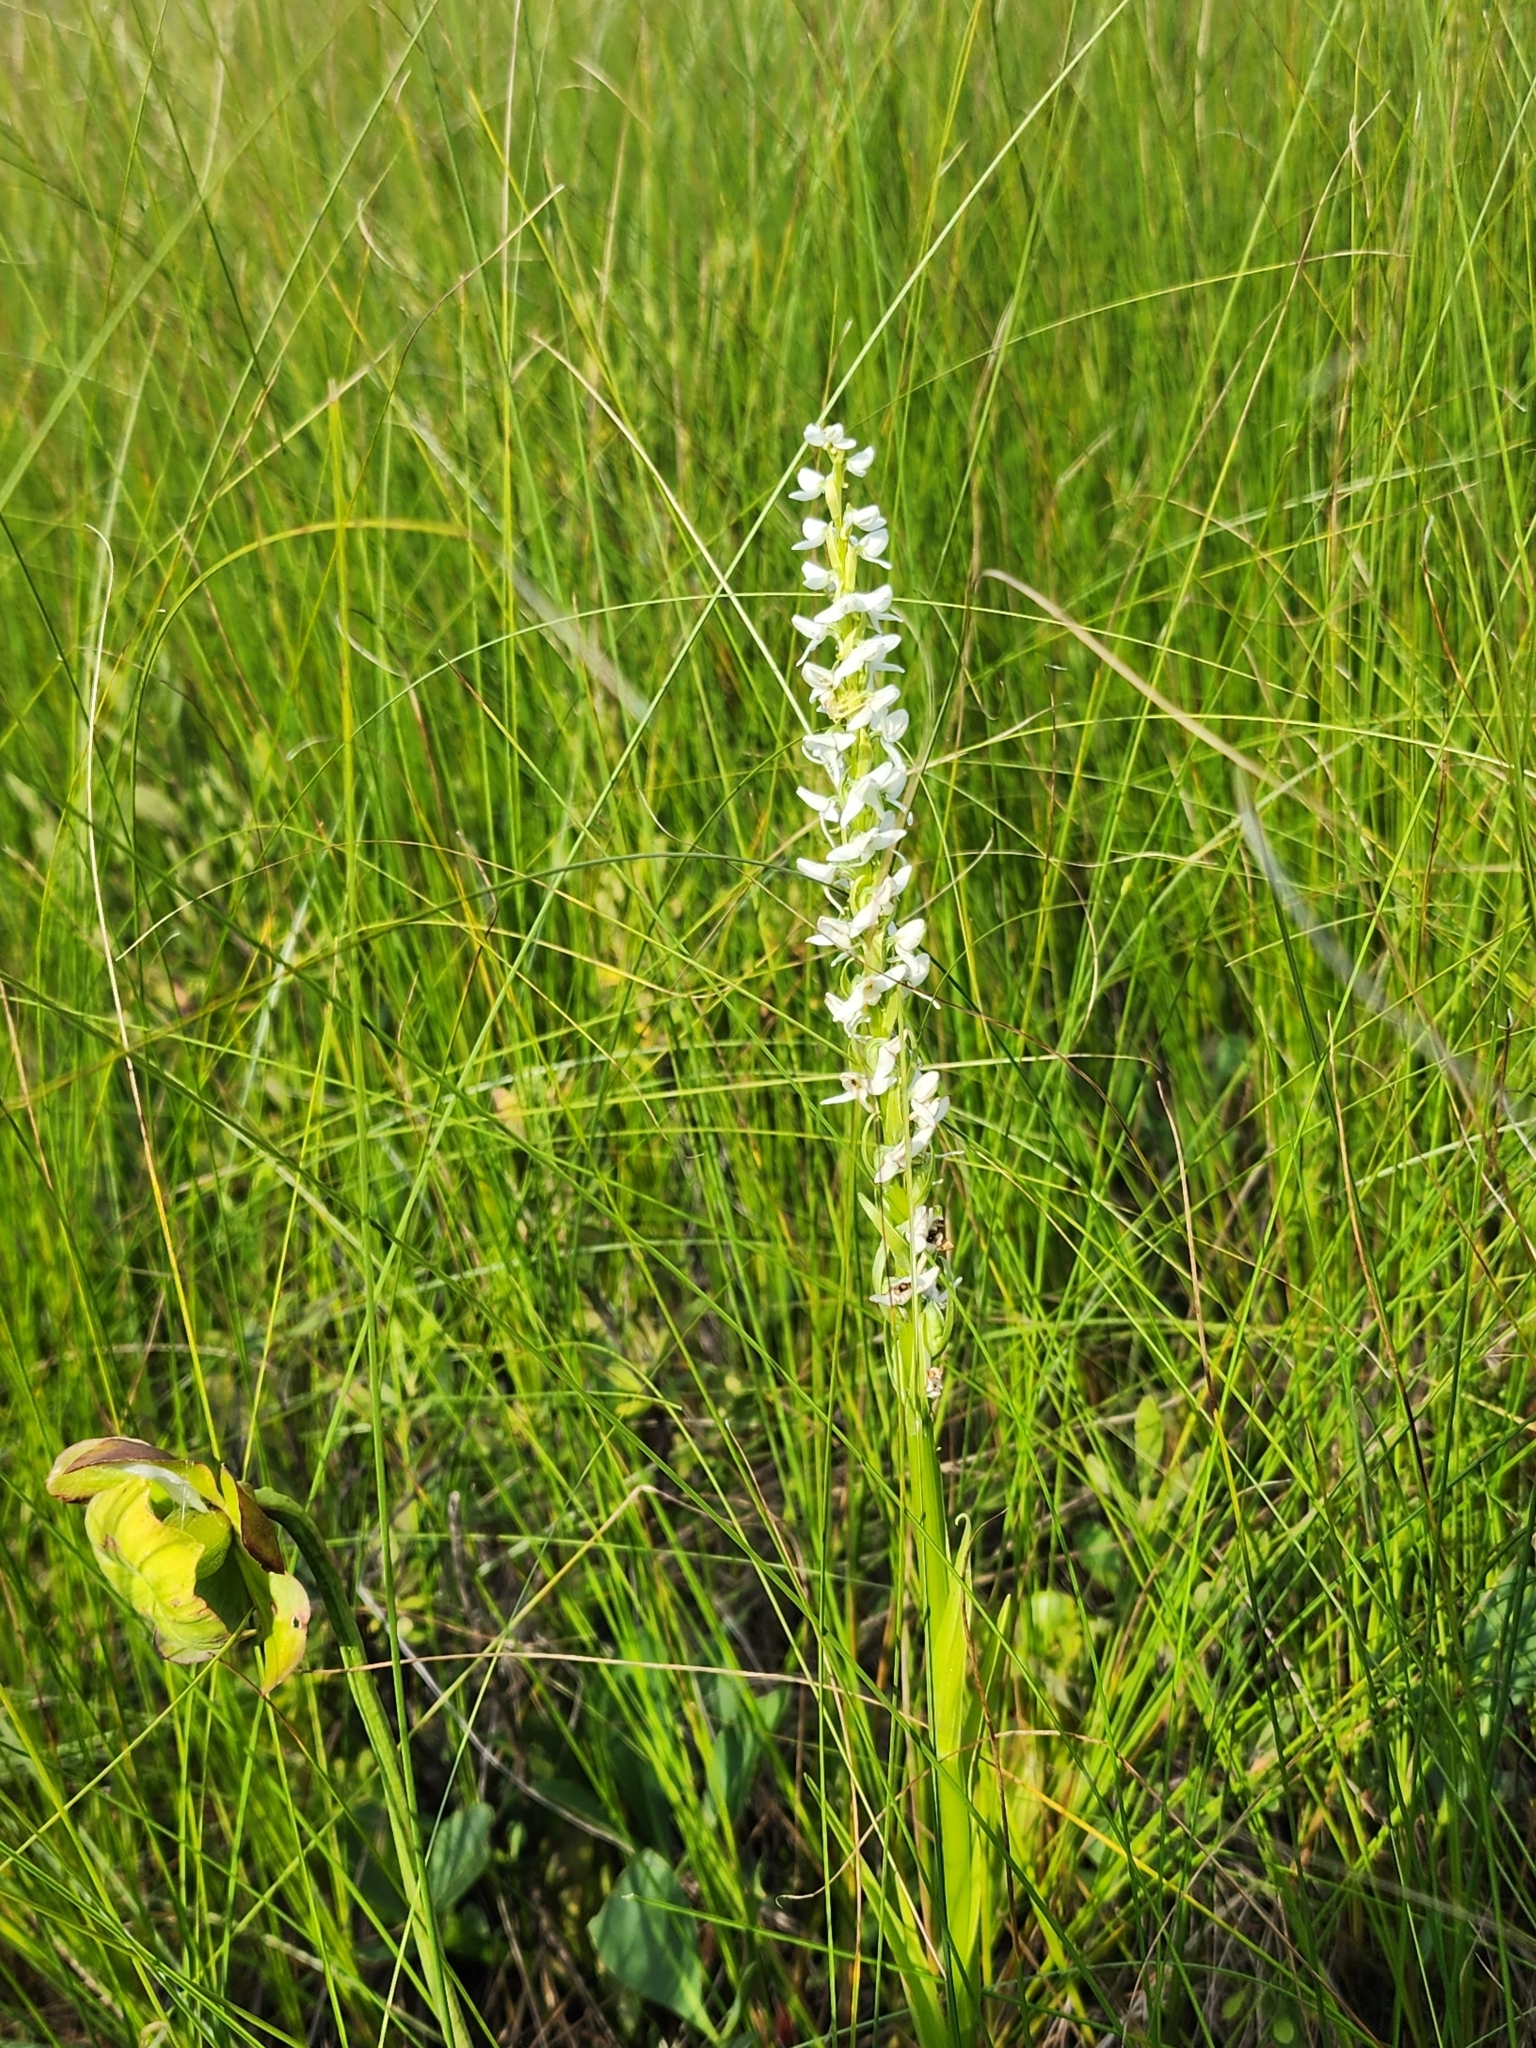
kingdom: Plantae
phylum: Tracheophyta
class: Liliopsida
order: Asparagales
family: Orchidaceae
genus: Platanthera
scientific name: Platanthera dilatata
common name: Bog candles
